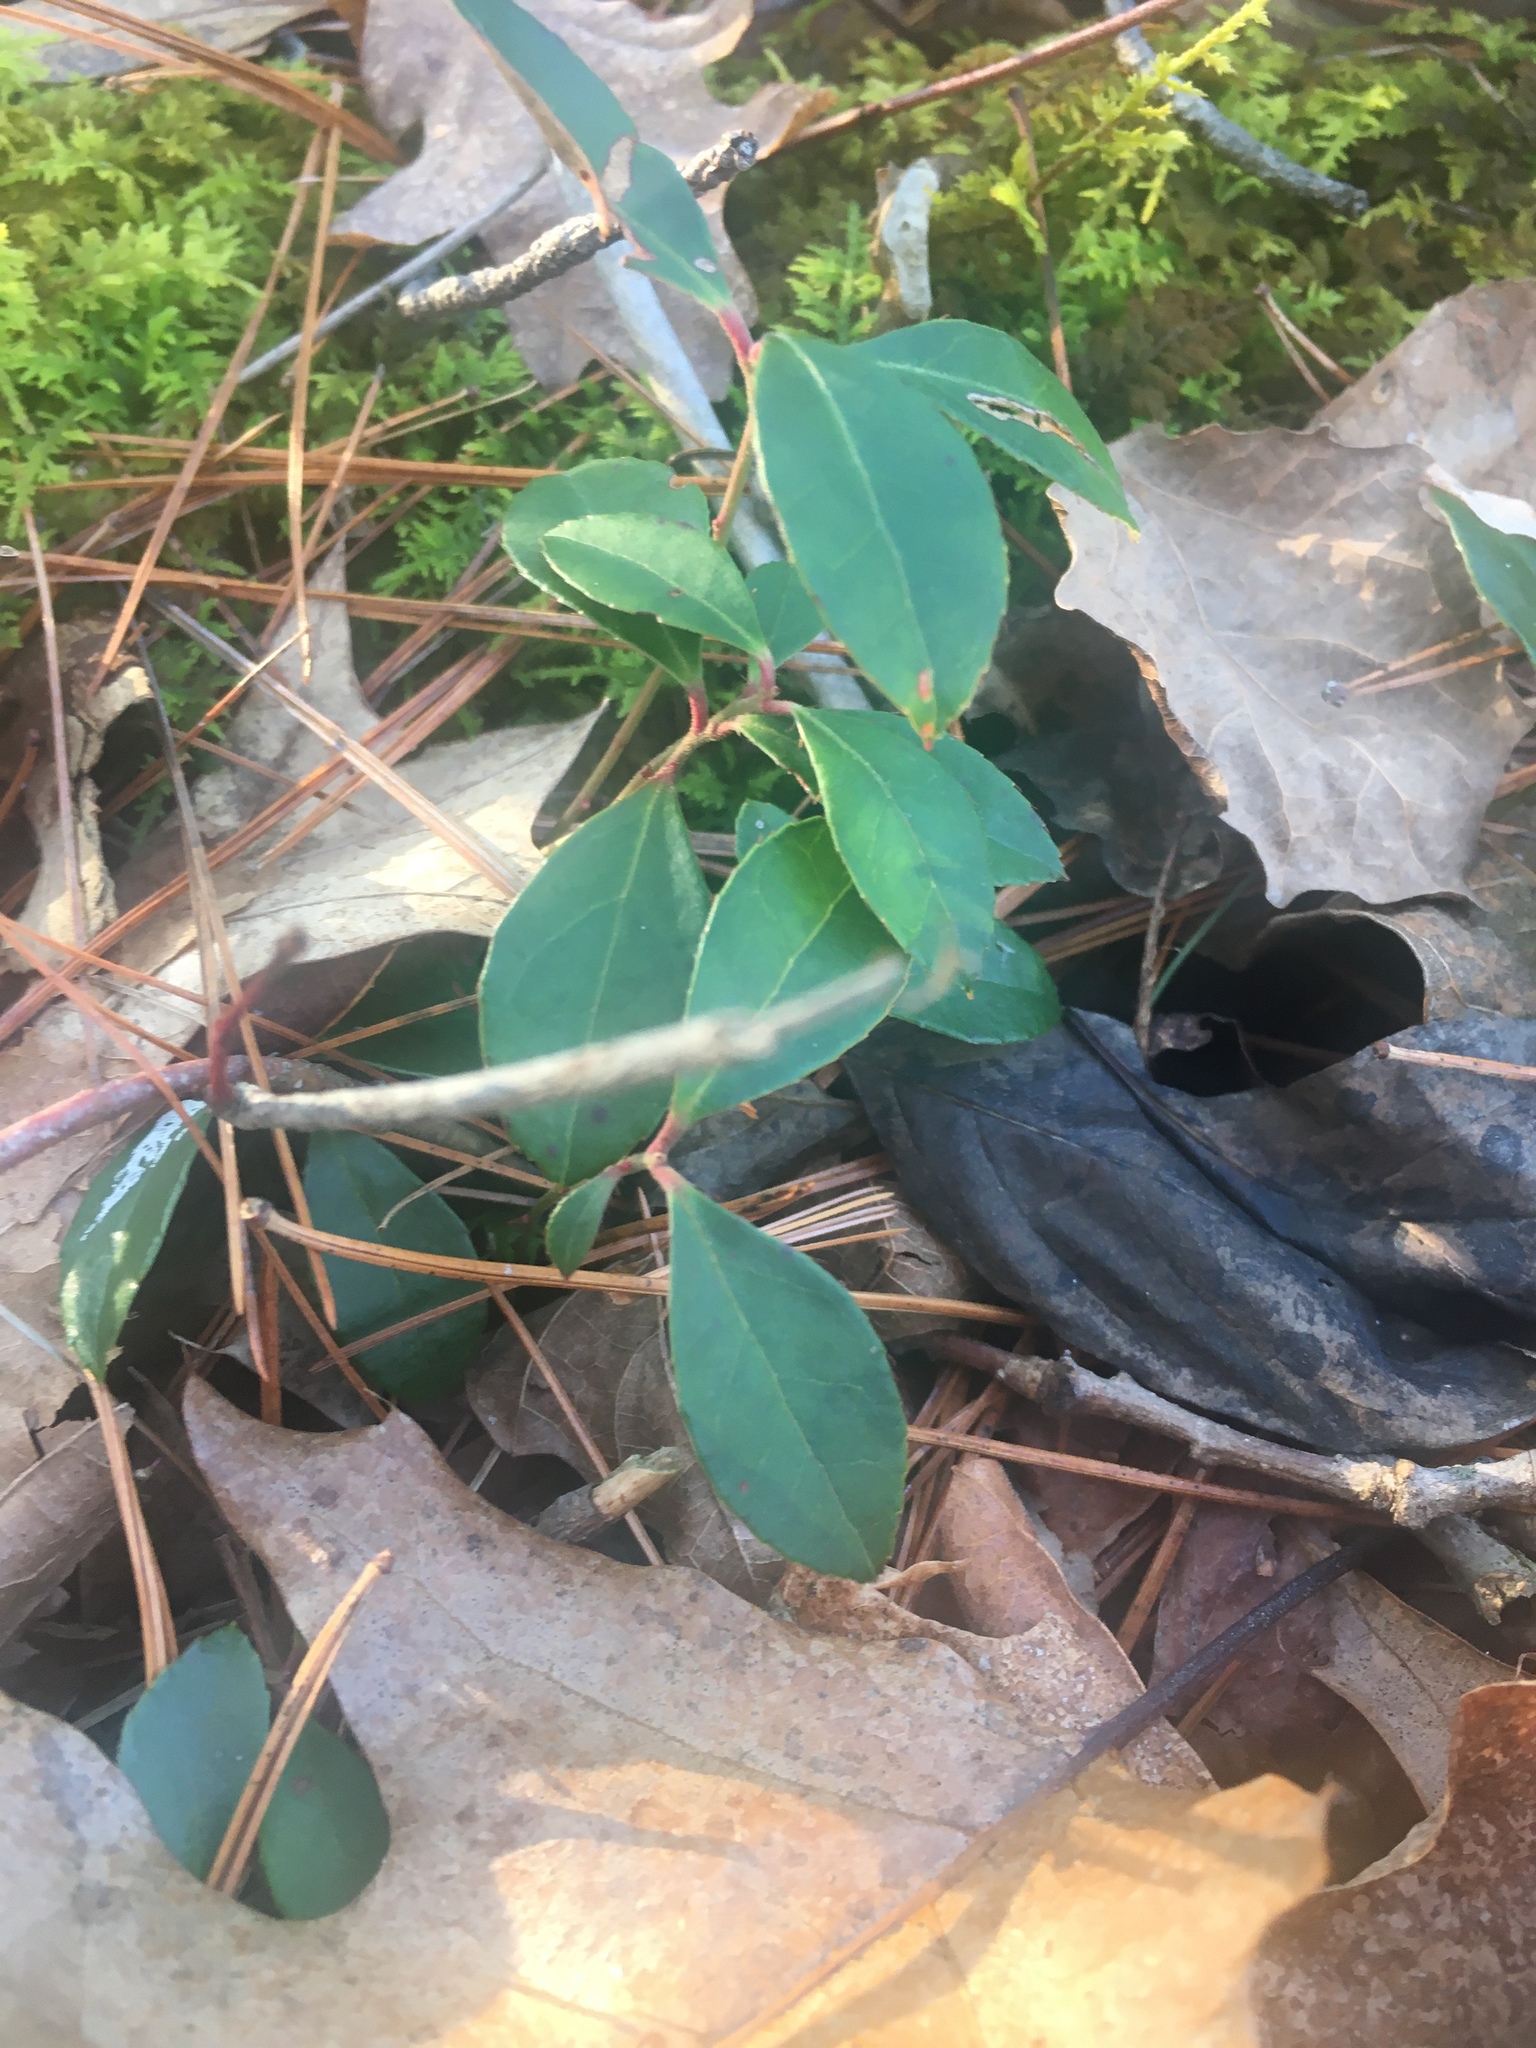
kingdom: Plantae
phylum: Tracheophyta
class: Magnoliopsida
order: Ericales
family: Ericaceae
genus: Gaultheria
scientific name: Gaultheria procumbens
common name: Checkerberry
